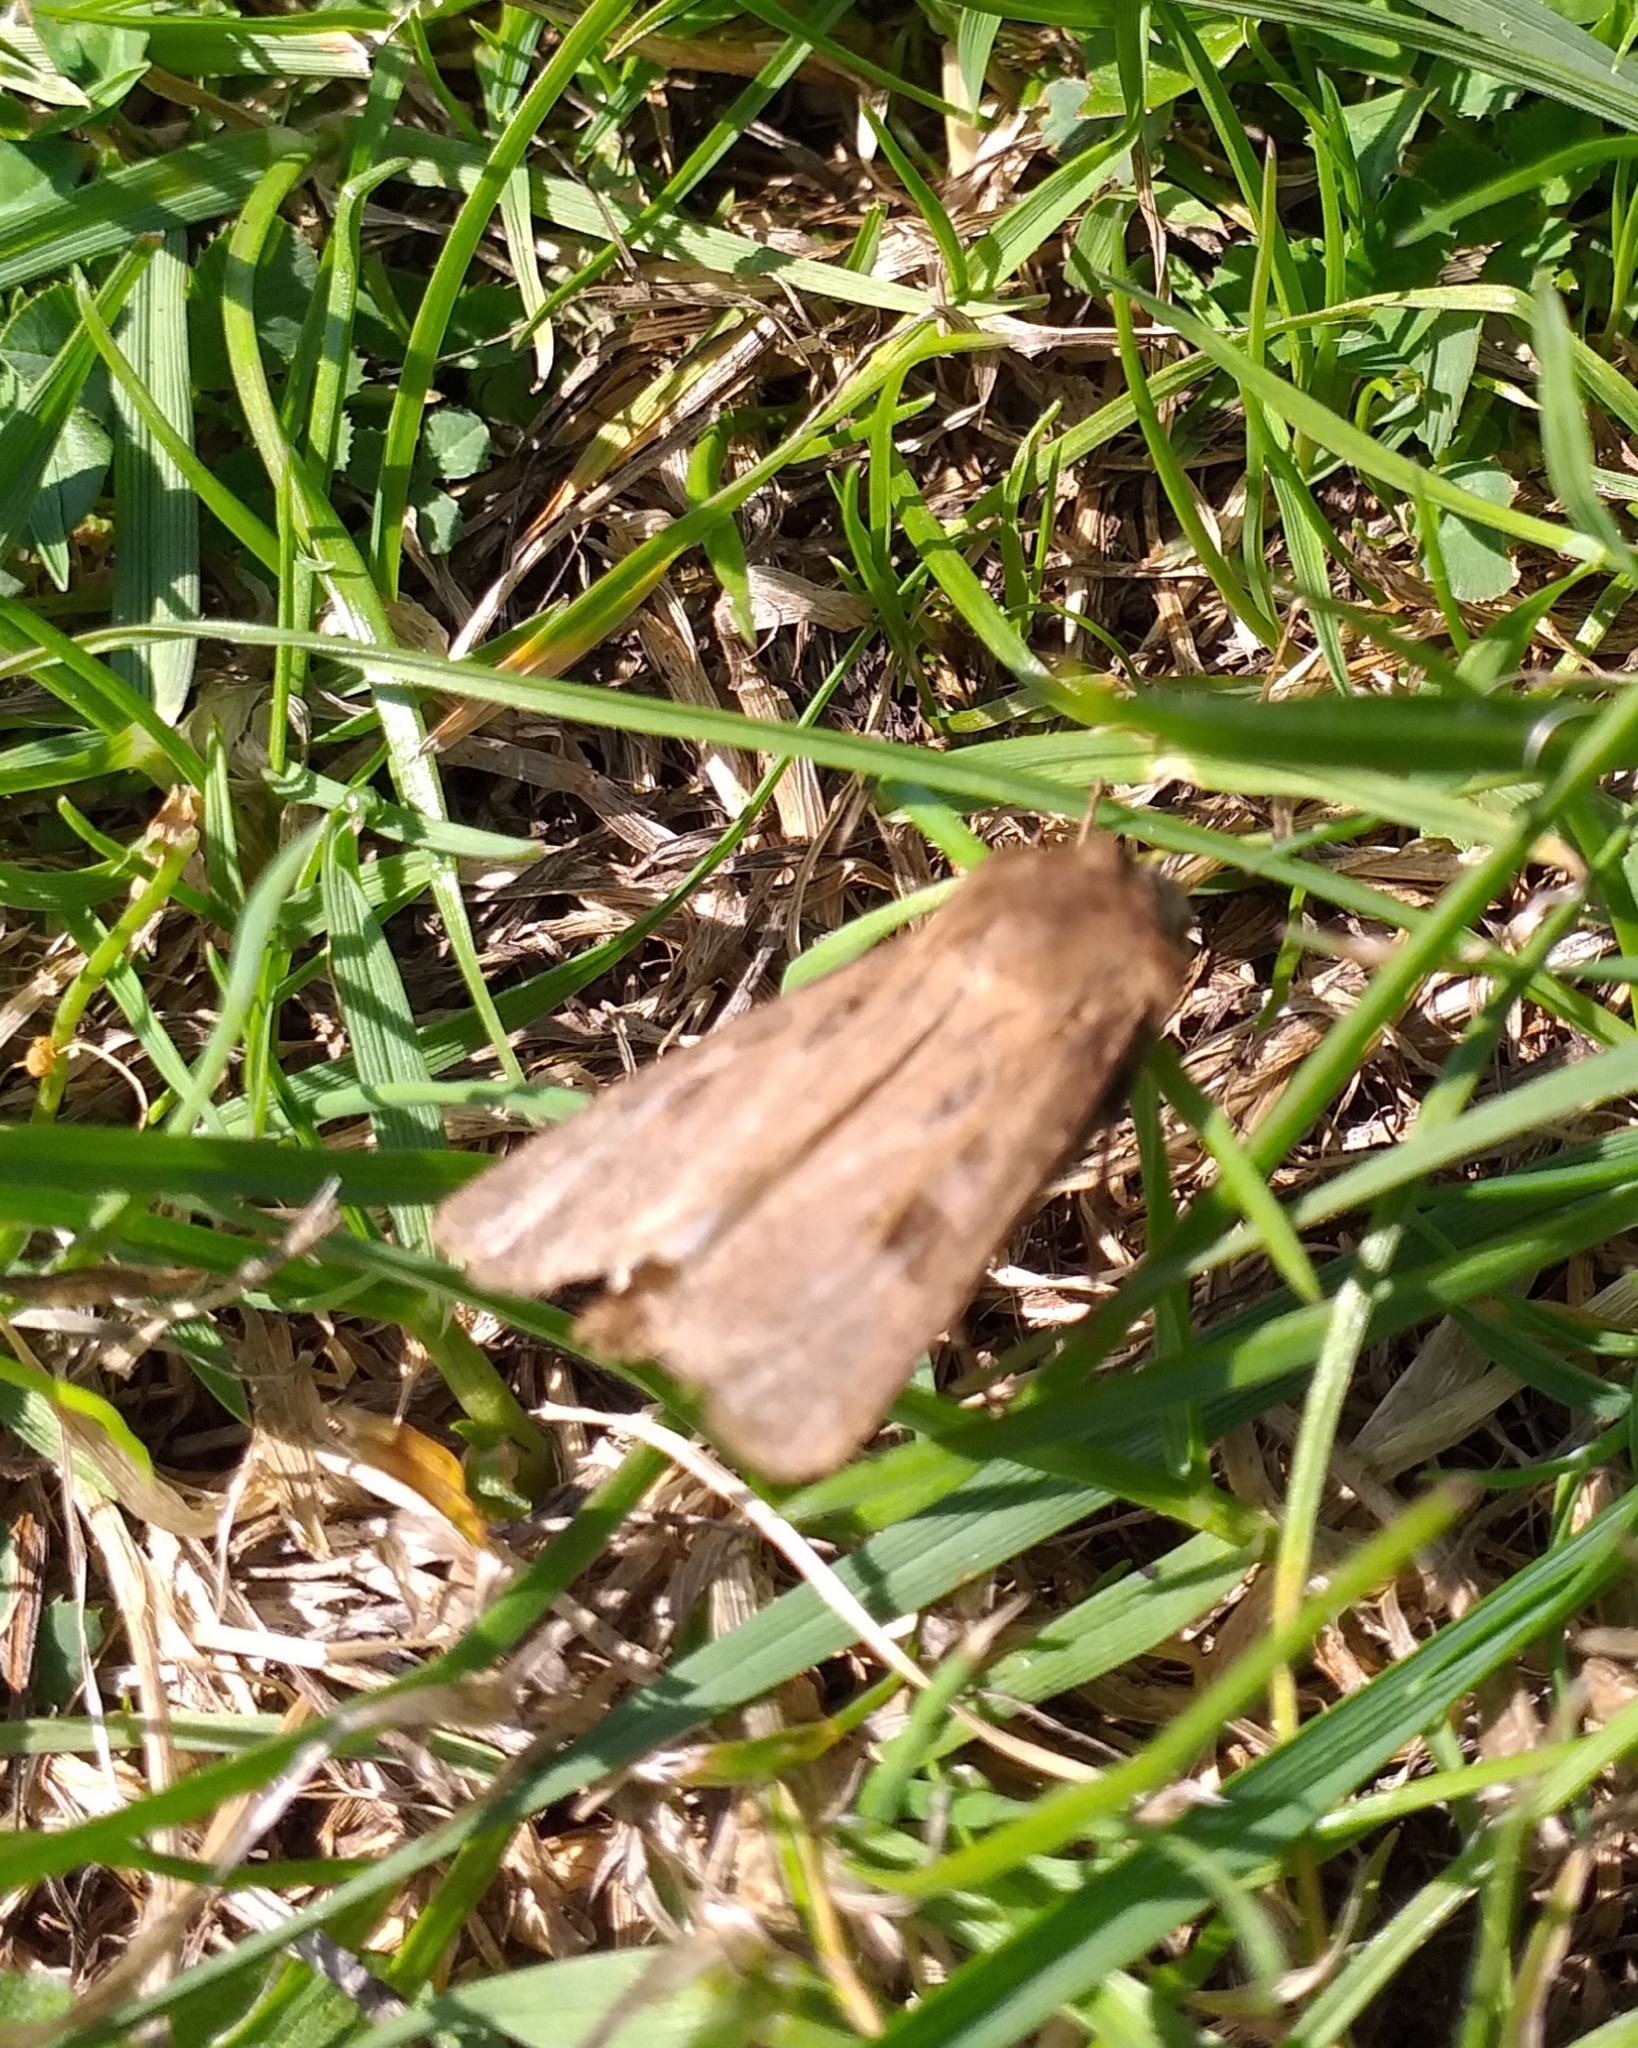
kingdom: Animalia
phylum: Arthropoda
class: Insecta
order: Lepidoptera
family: Noctuidae
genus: Agrotis
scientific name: Agrotis exclamationis
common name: Heart and dart
